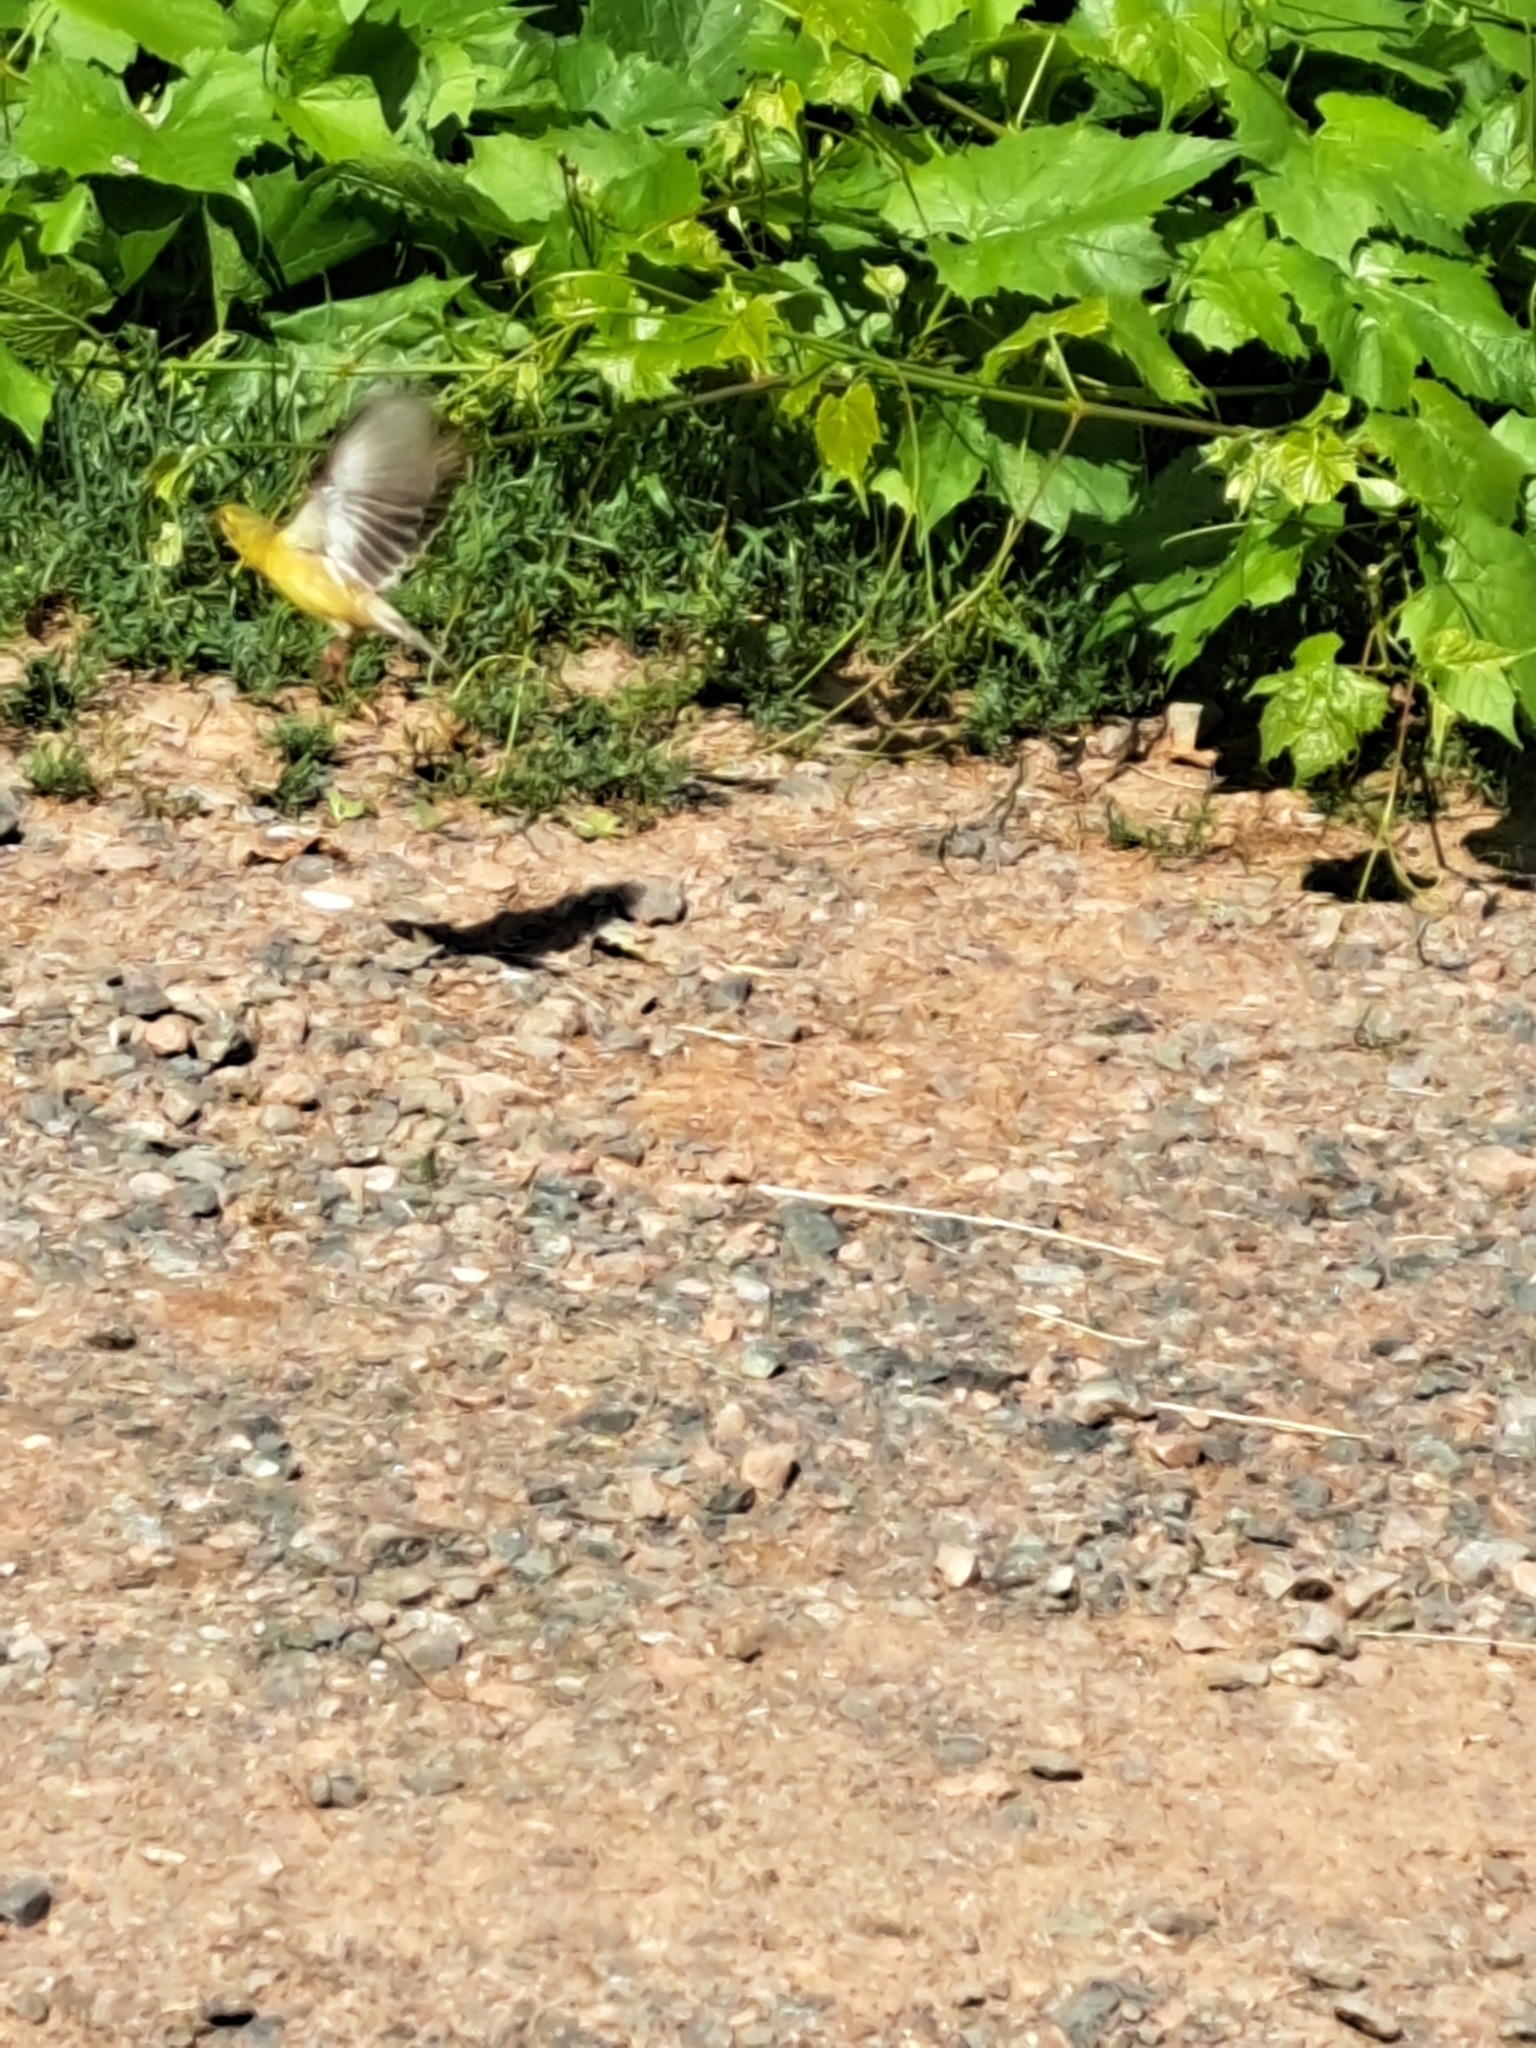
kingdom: Animalia
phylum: Chordata
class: Aves
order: Passeriformes
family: Fringillidae
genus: Spinus
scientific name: Spinus tristis
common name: American goldfinch
